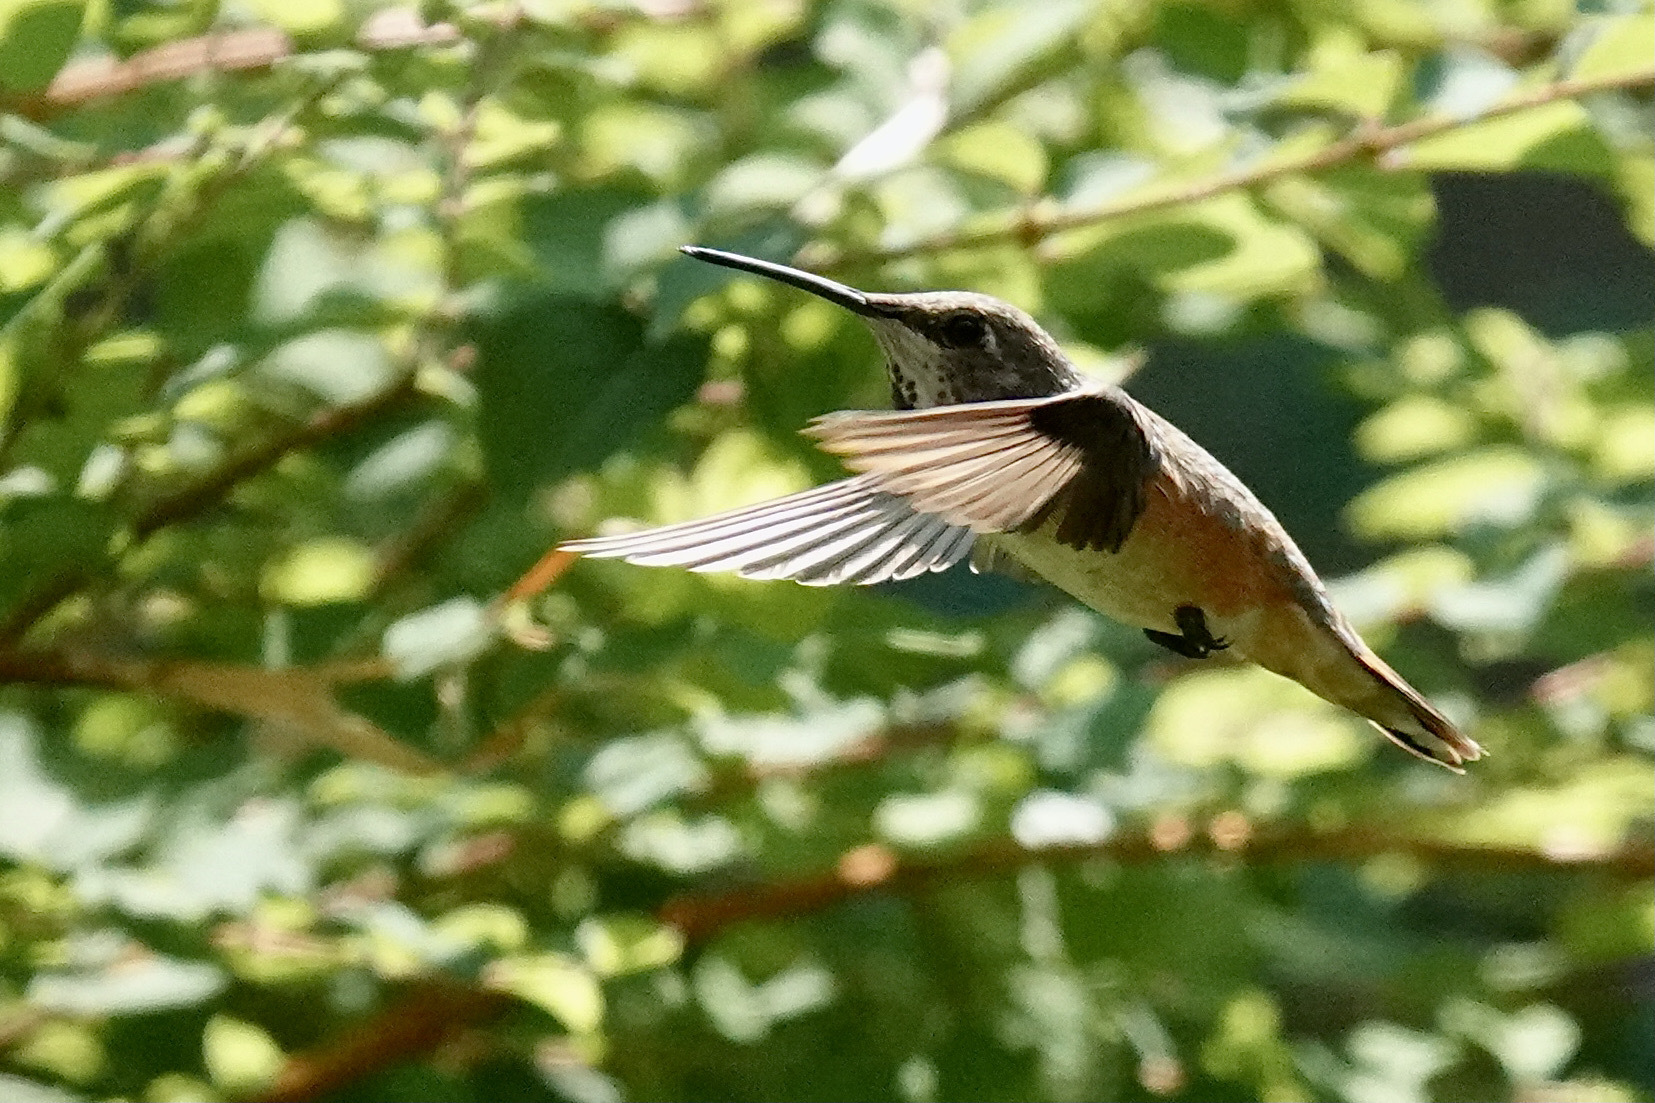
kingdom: Animalia
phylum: Chordata
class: Aves
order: Apodiformes
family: Trochilidae
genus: Selasphorus
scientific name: Selasphorus rufus
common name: Rufous hummingbird
